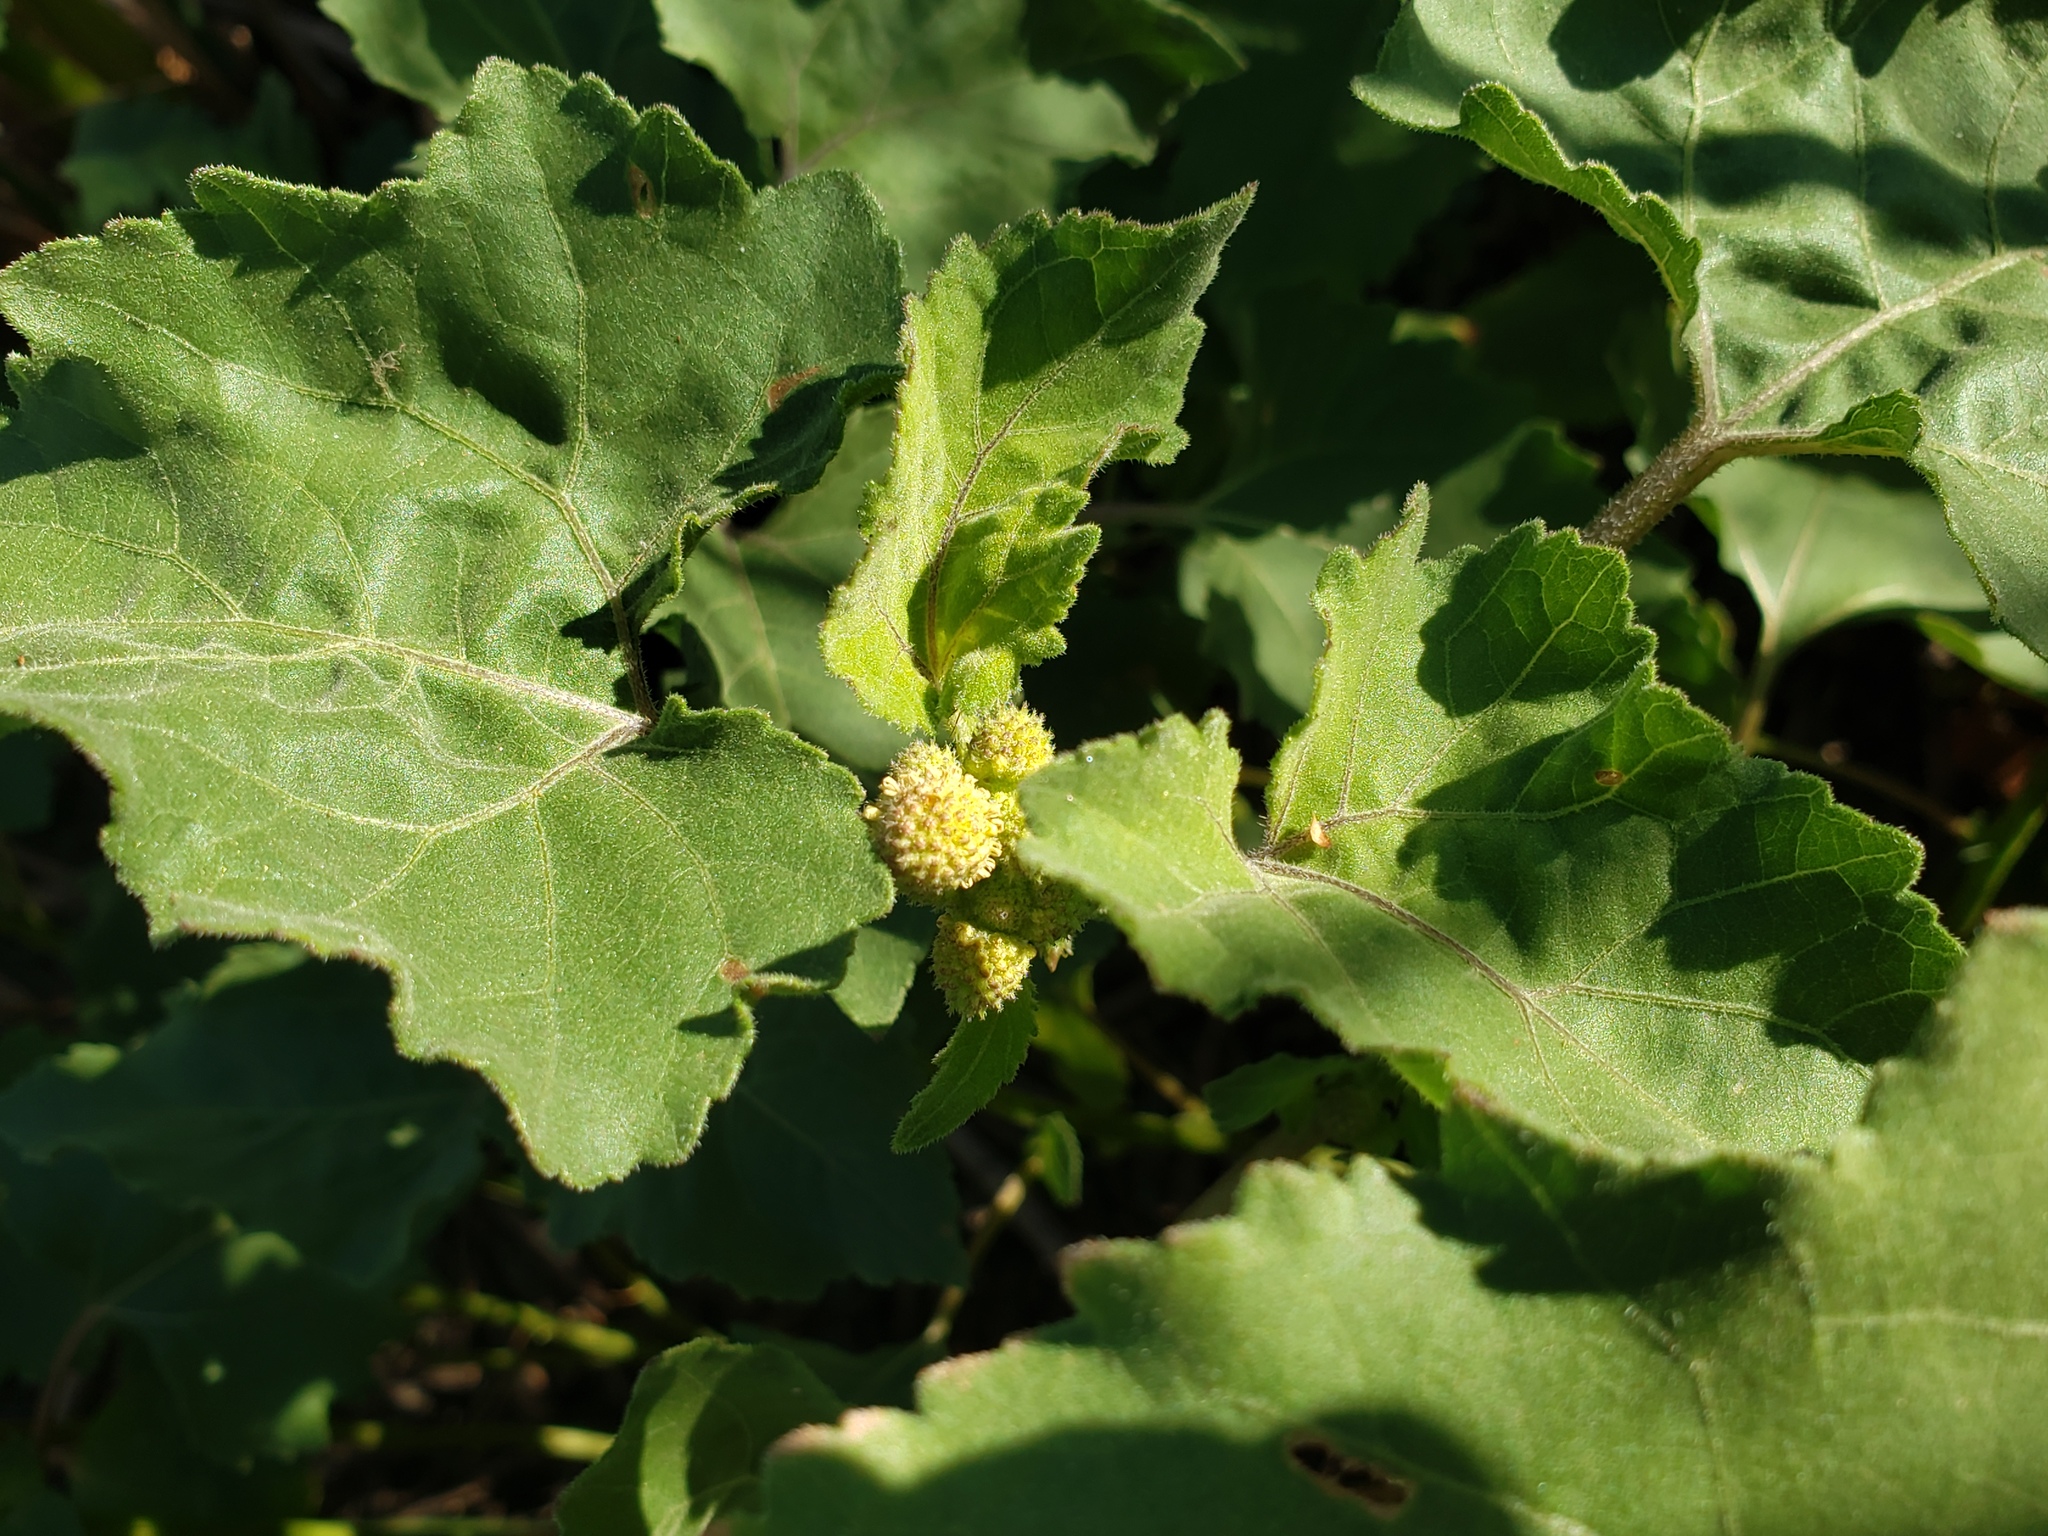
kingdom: Plantae
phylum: Tracheophyta
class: Magnoliopsida
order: Asterales
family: Asteraceae
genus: Xanthium
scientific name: Xanthium strumarium
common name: Rough cocklebur
